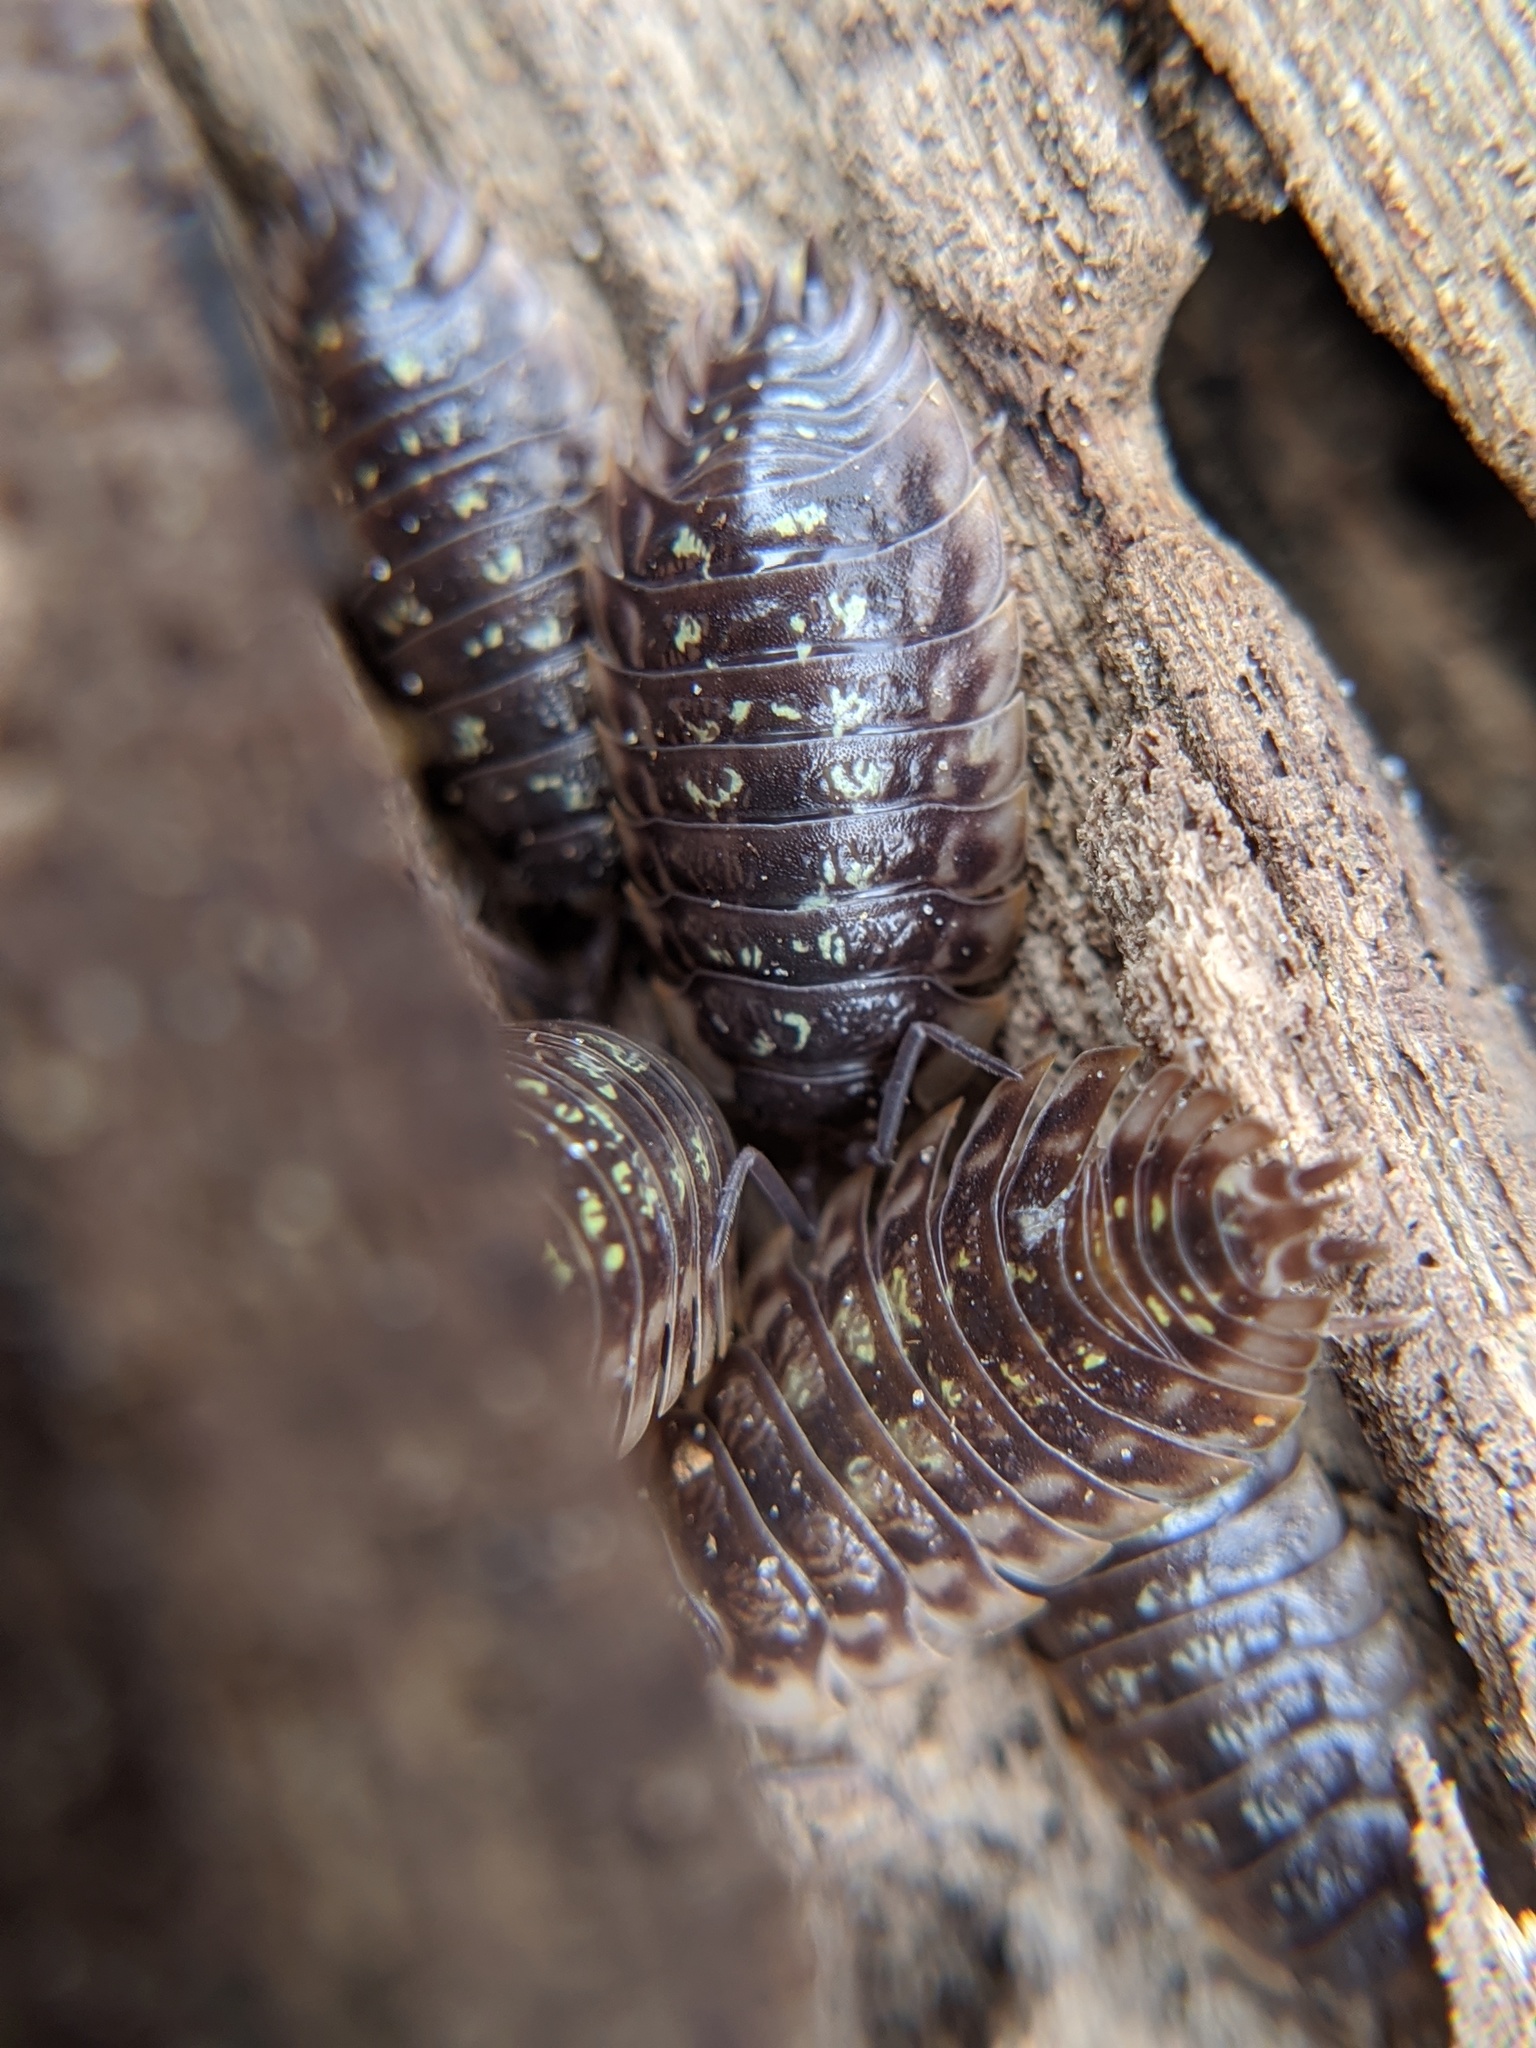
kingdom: Animalia
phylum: Arthropoda
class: Malacostraca
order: Isopoda
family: Oniscidae
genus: Oniscus
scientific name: Oniscus asellus
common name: Common shiny woodlouse
